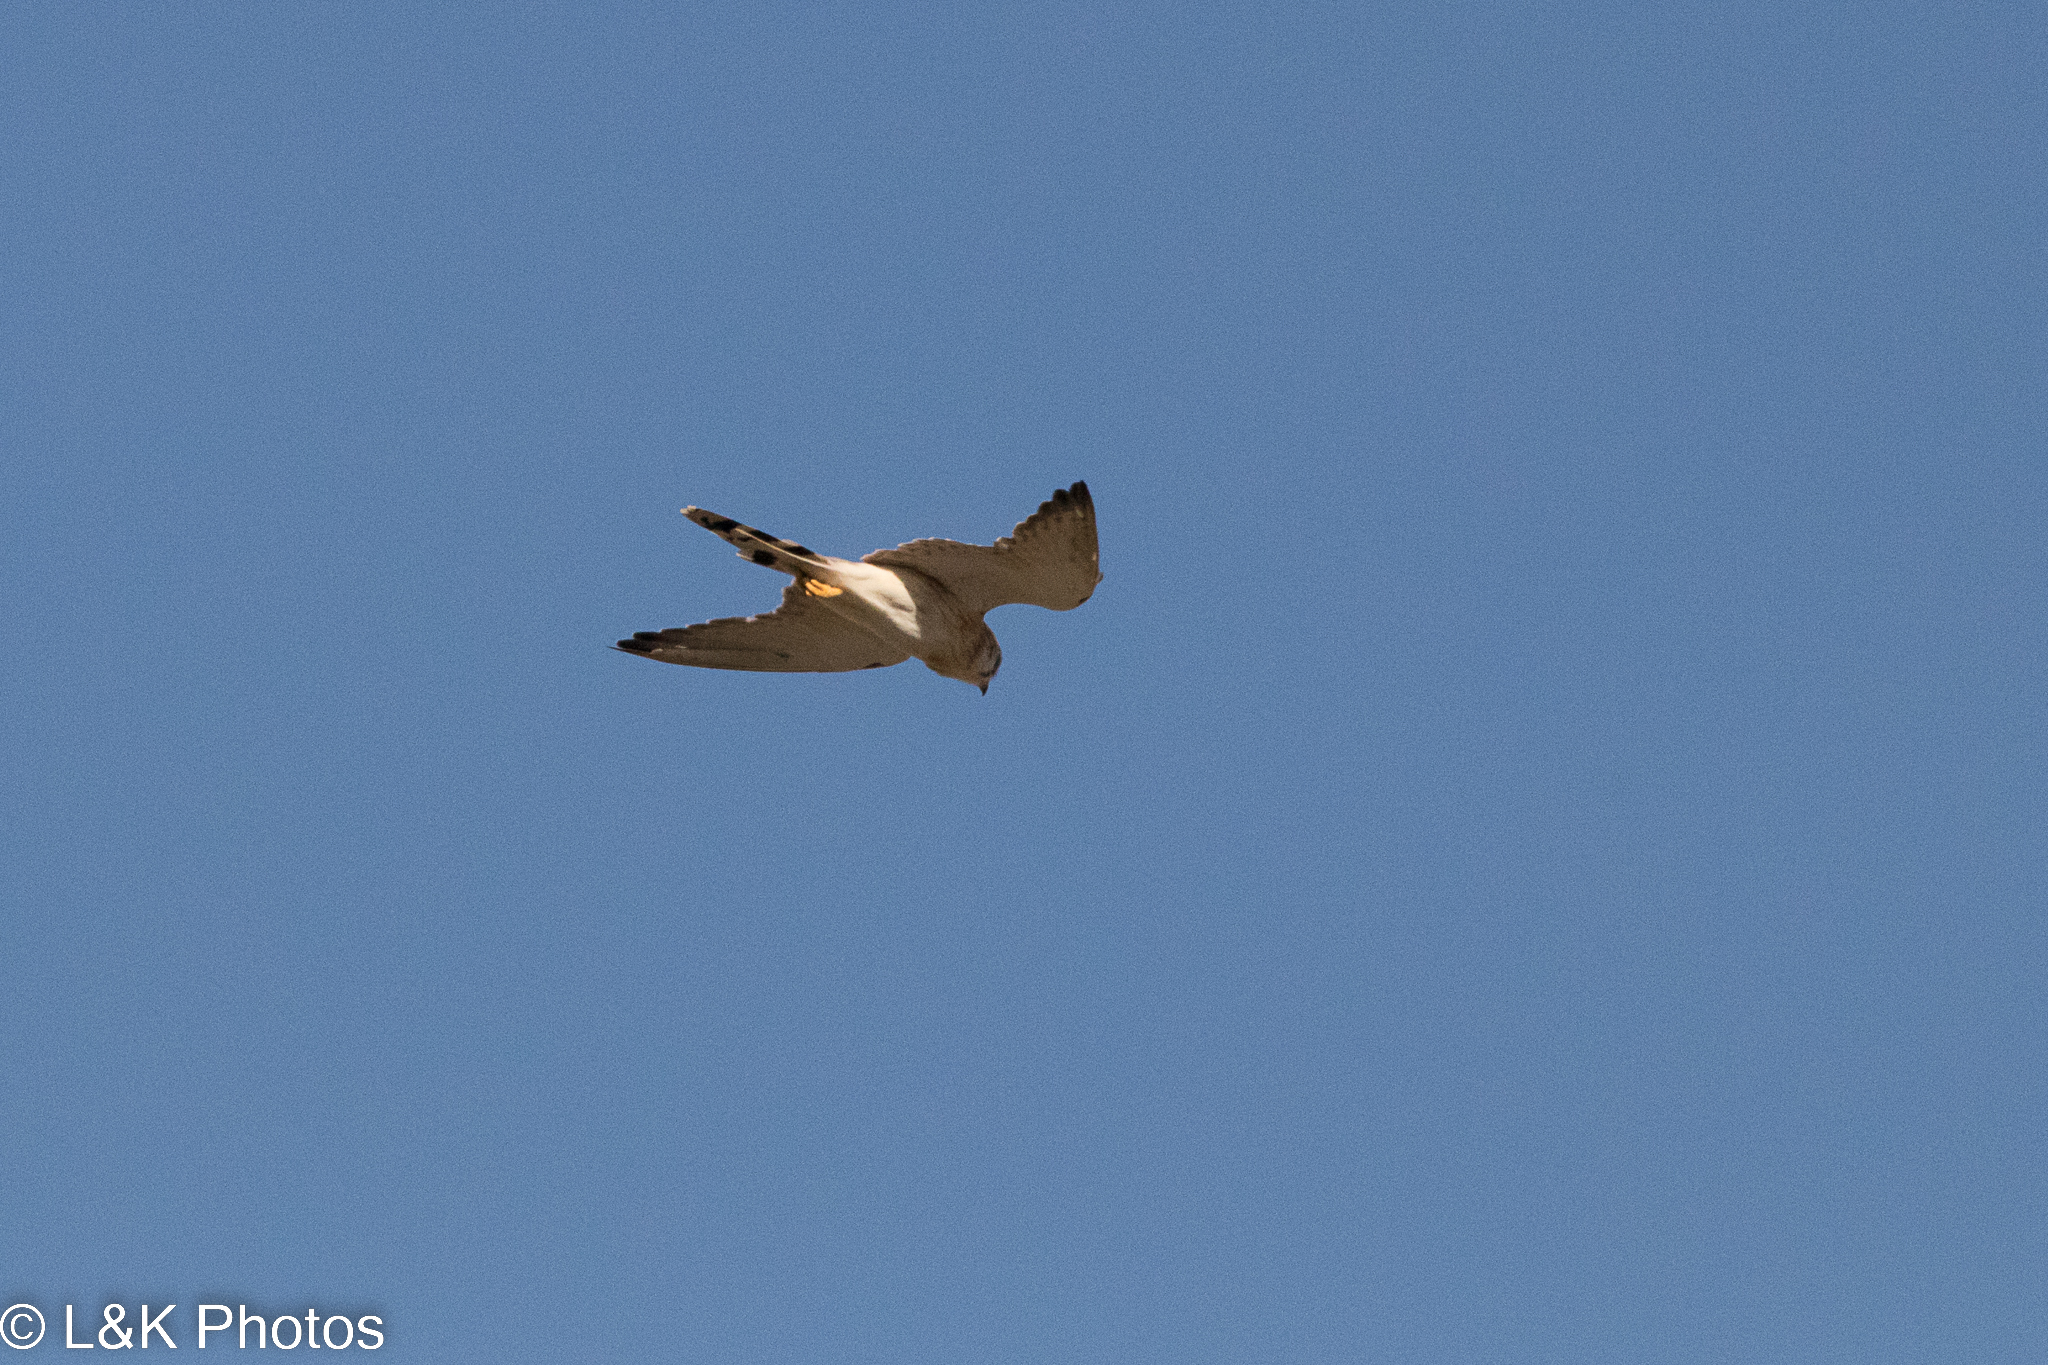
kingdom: Animalia
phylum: Chordata
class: Aves
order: Falconiformes
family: Falconidae
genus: Falco
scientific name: Falco cenchroides
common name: Nankeen kestrel
